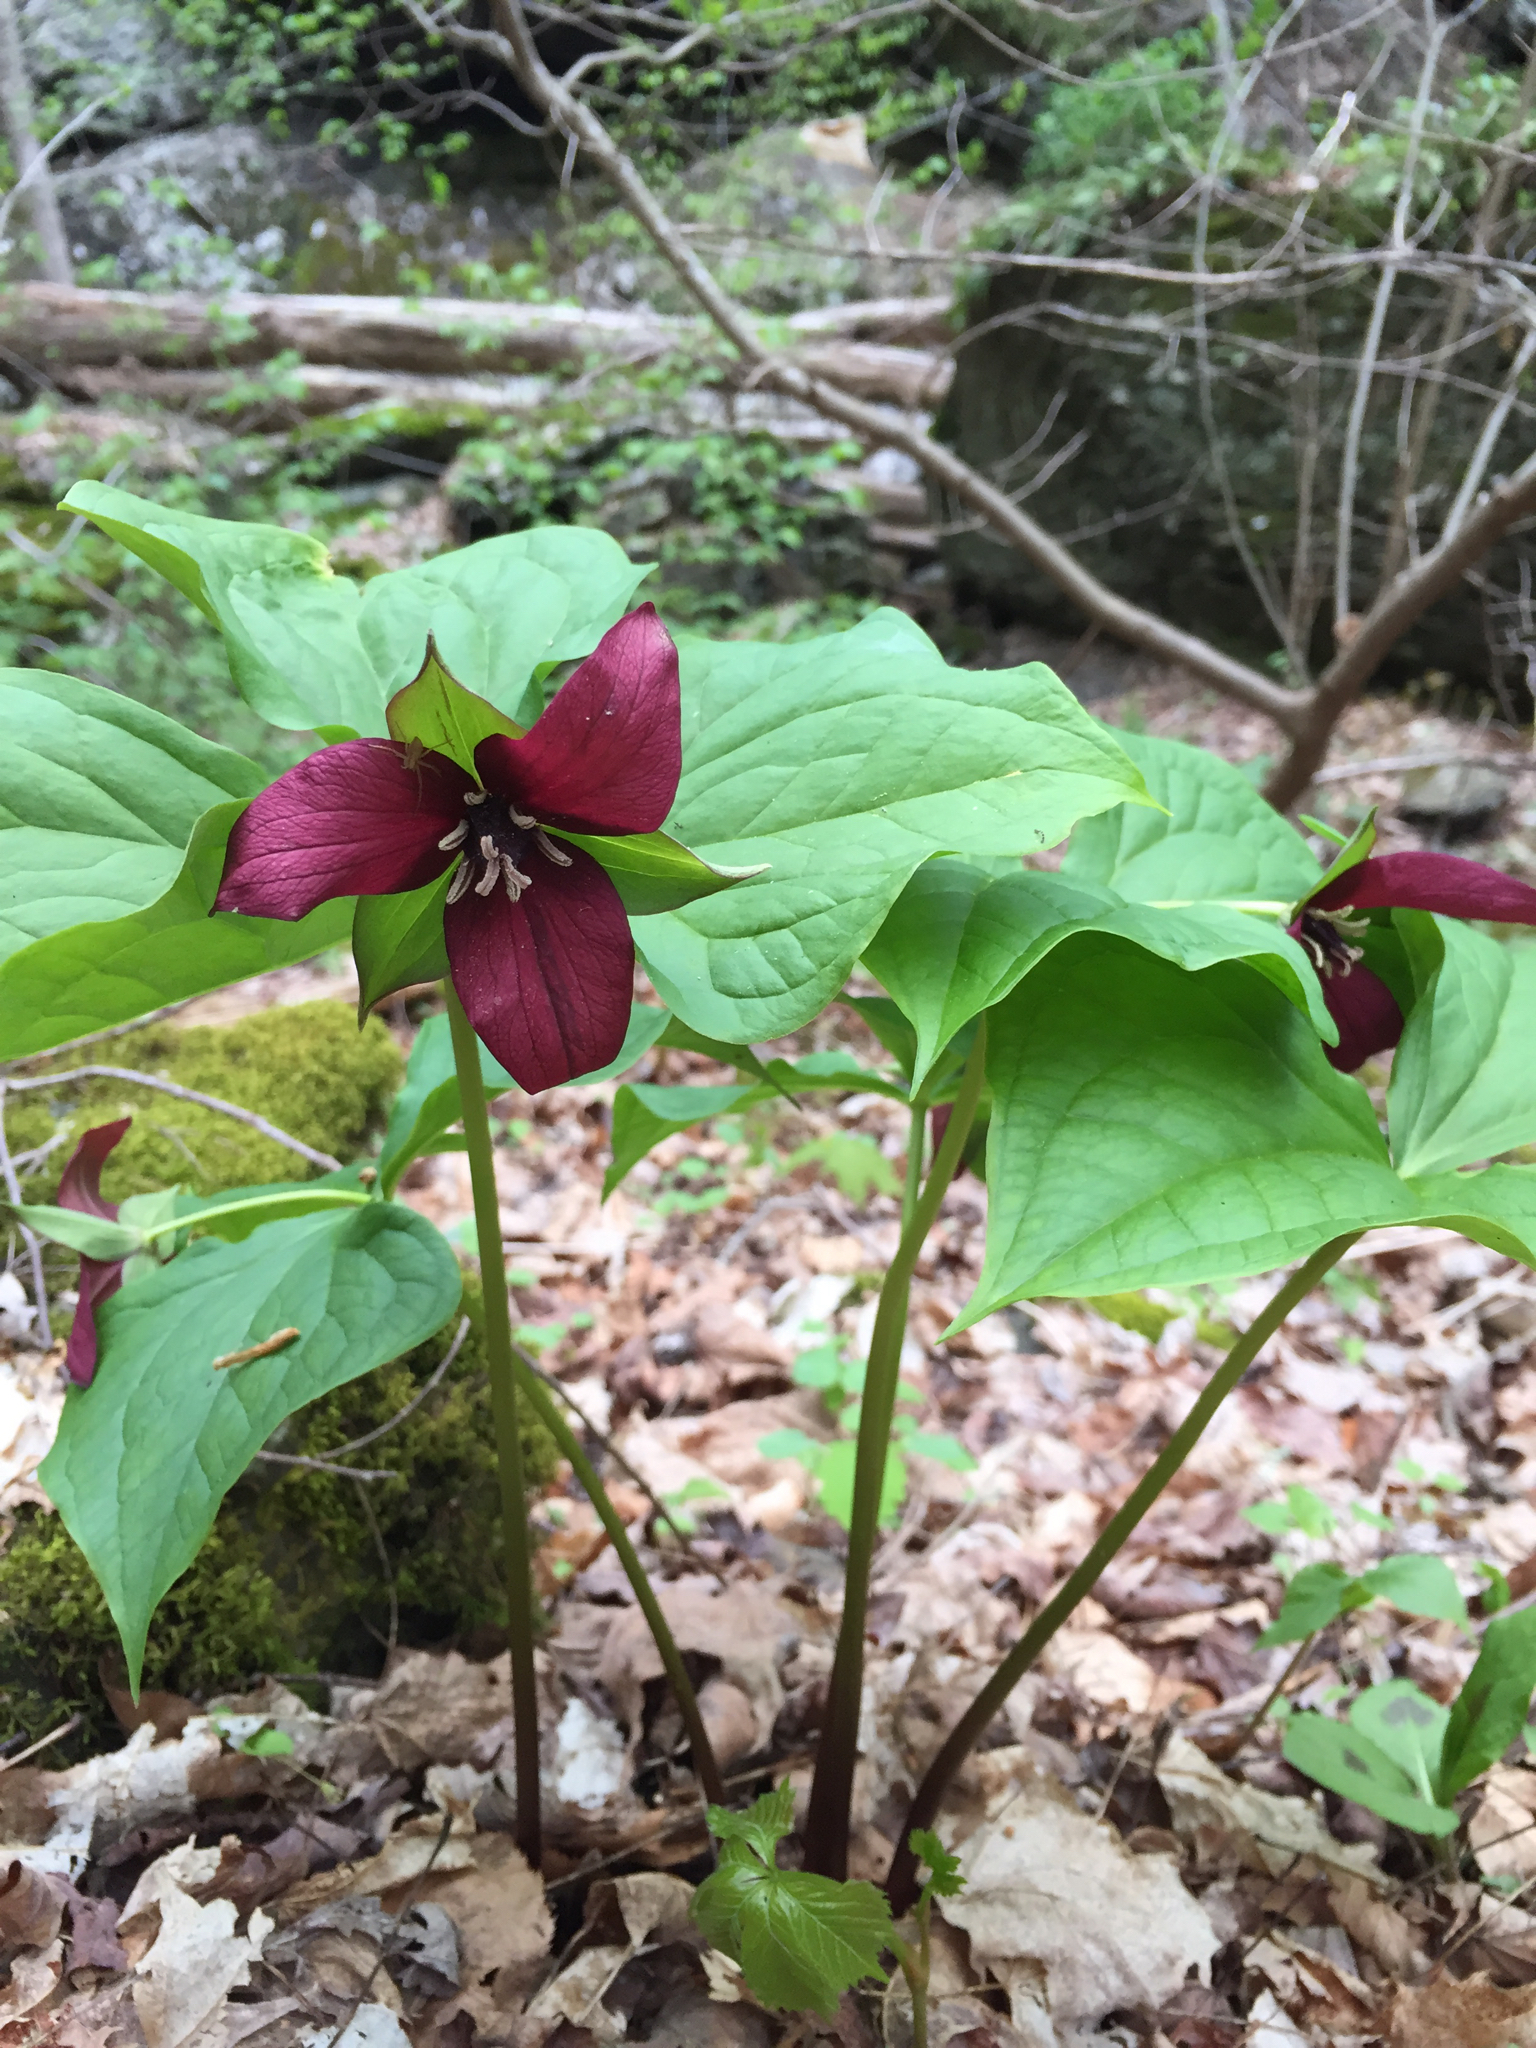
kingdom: Plantae
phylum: Tracheophyta
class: Liliopsida
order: Liliales
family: Melanthiaceae
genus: Trillium
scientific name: Trillium erectum
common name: Purple trillium
